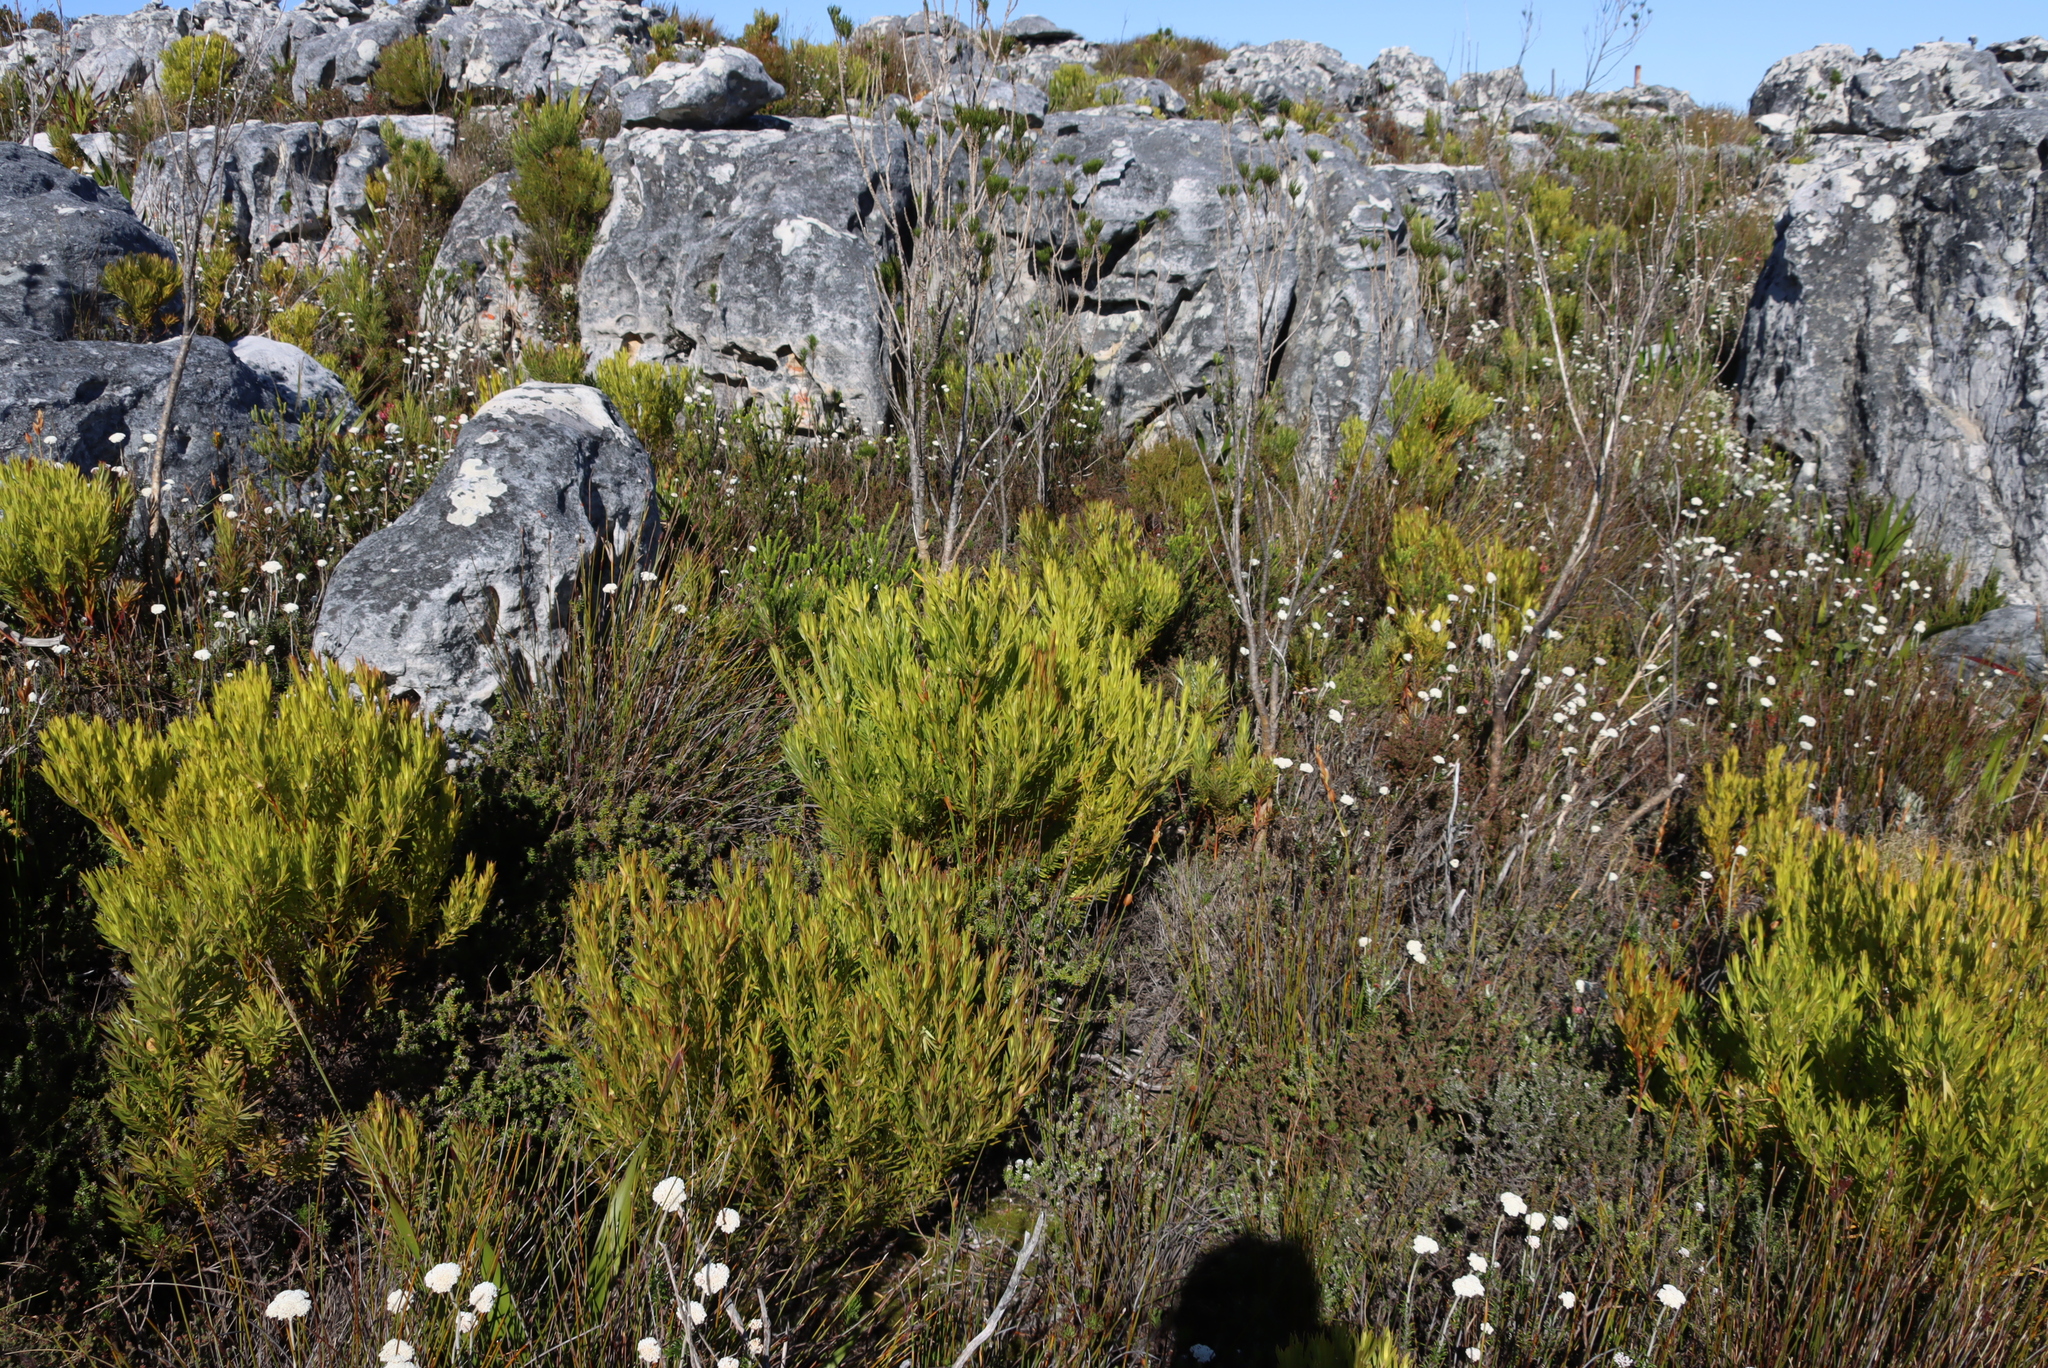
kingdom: Plantae
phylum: Tracheophyta
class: Magnoliopsida
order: Proteales
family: Proteaceae
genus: Leucadendron
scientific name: Leucadendron xanthoconus
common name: Sickle-leaf conebush
